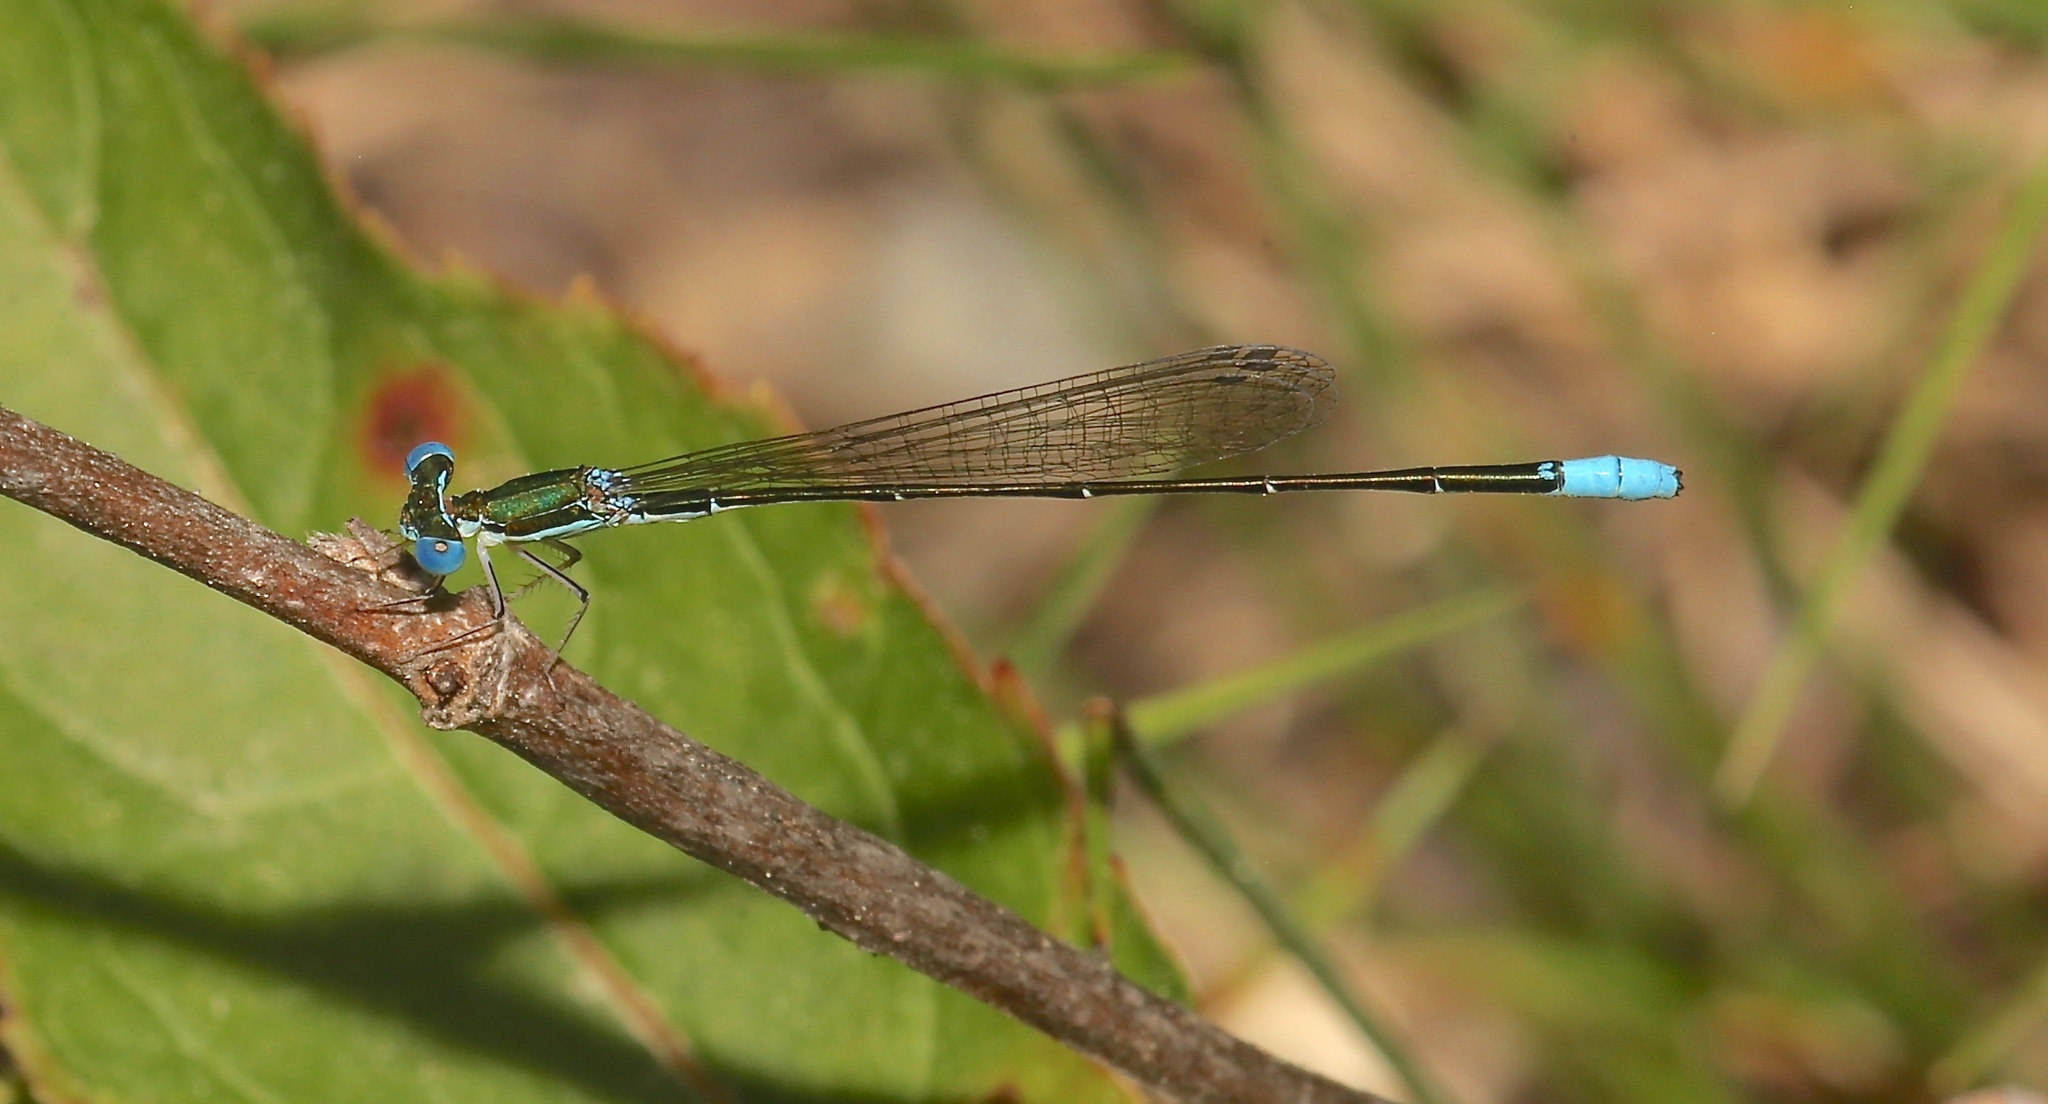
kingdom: Animalia
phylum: Arthropoda
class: Insecta
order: Odonata
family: Coenagrionidae
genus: Nehalennia
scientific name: Nehalennia gracilis
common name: Sphagnum sprite
